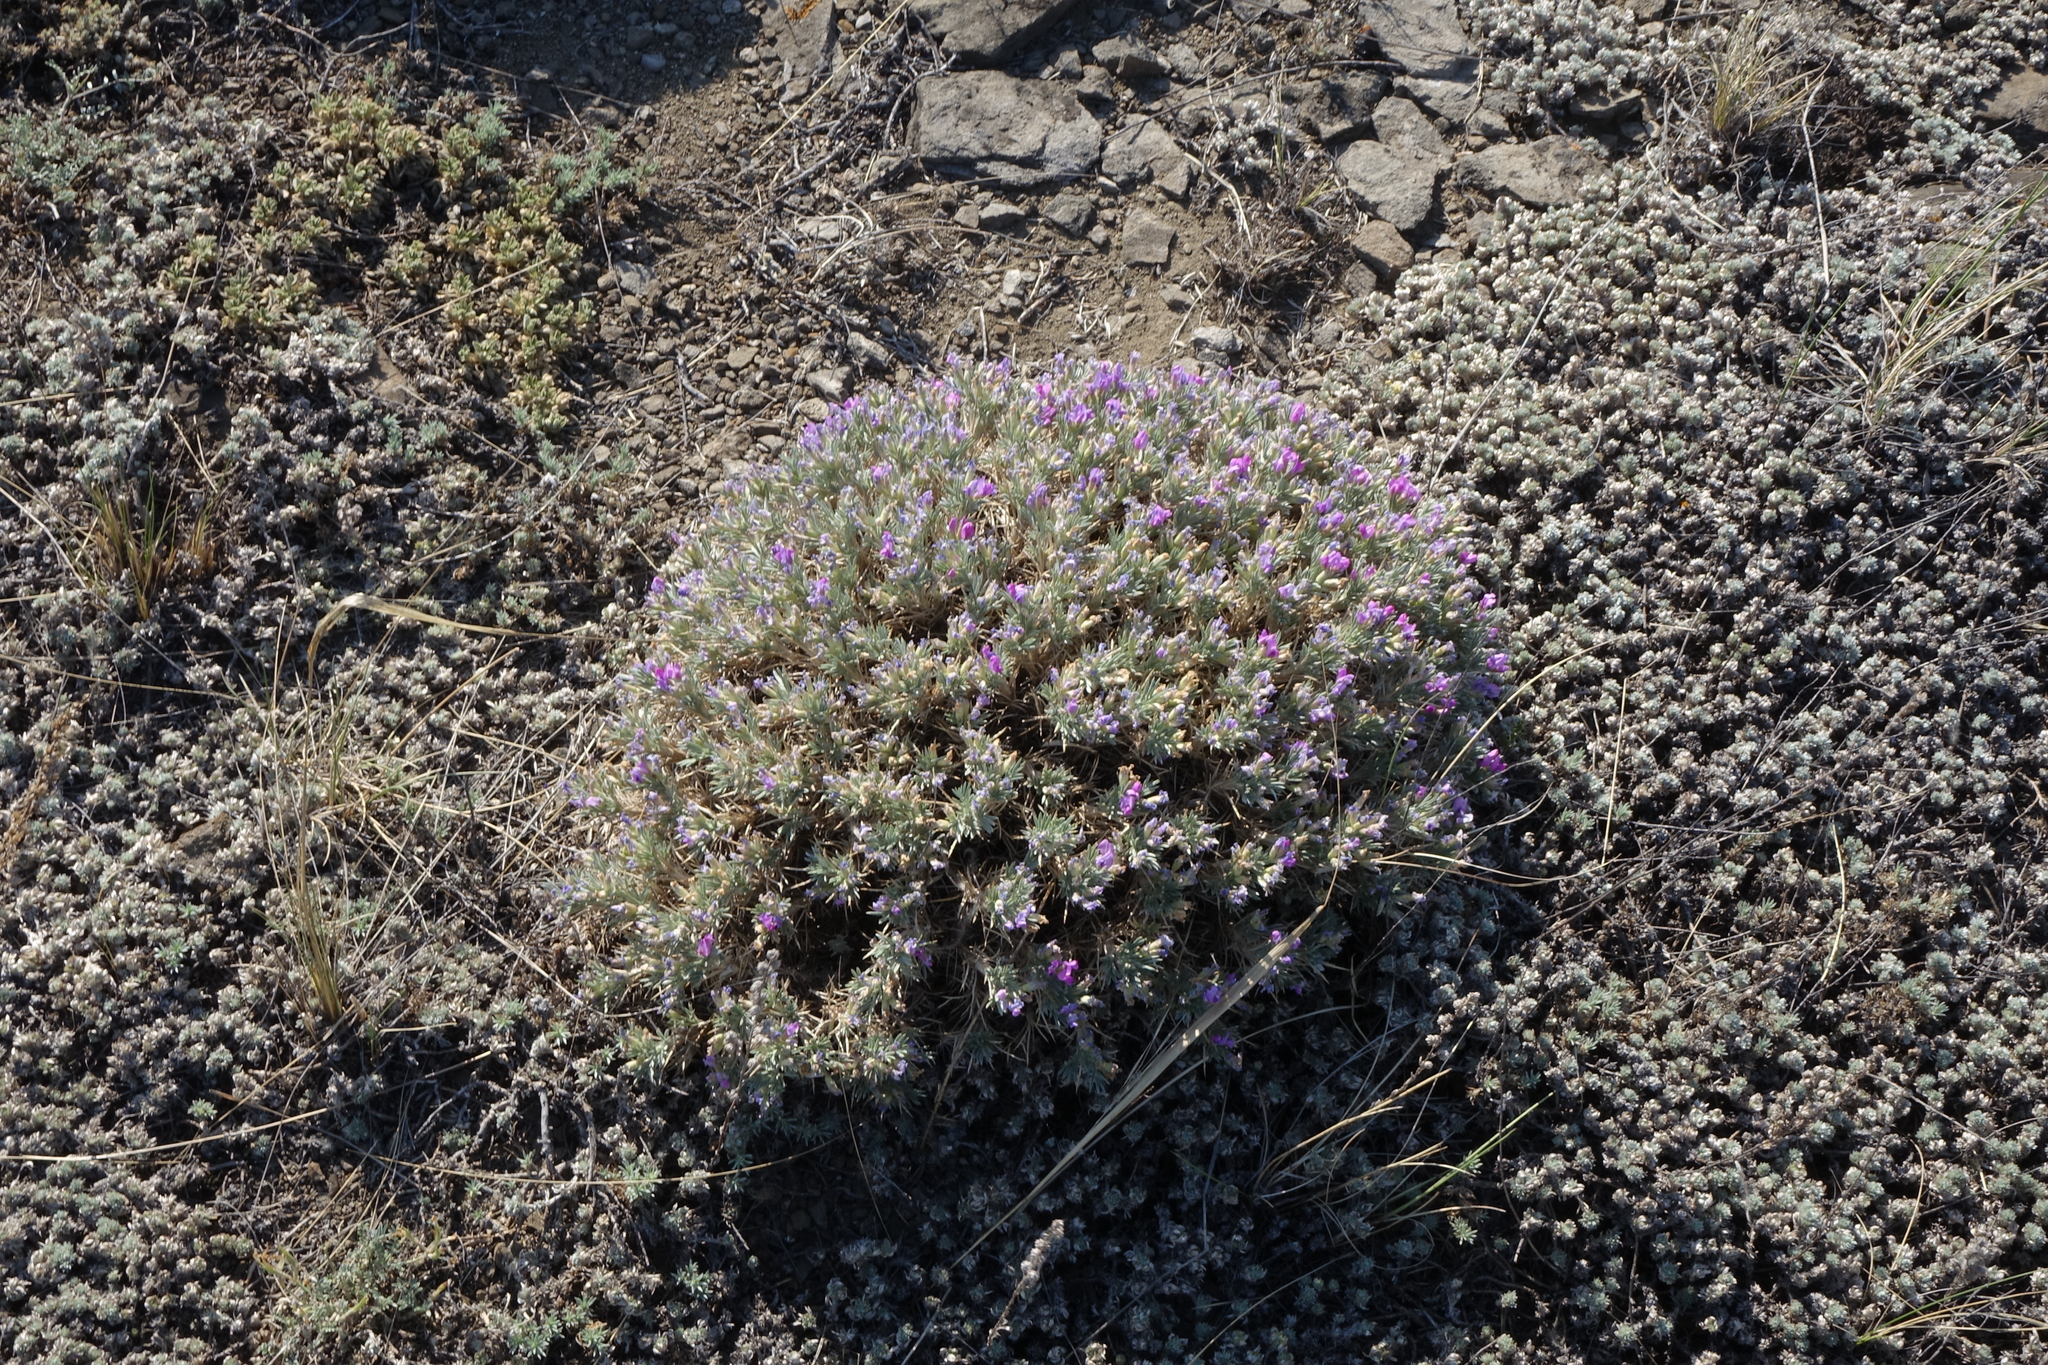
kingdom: Plantae
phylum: Tracheophyta
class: Magnoliopsida
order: Fabales
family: Fabaceae
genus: Oxytropis
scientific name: Oxytropis borissoviae
